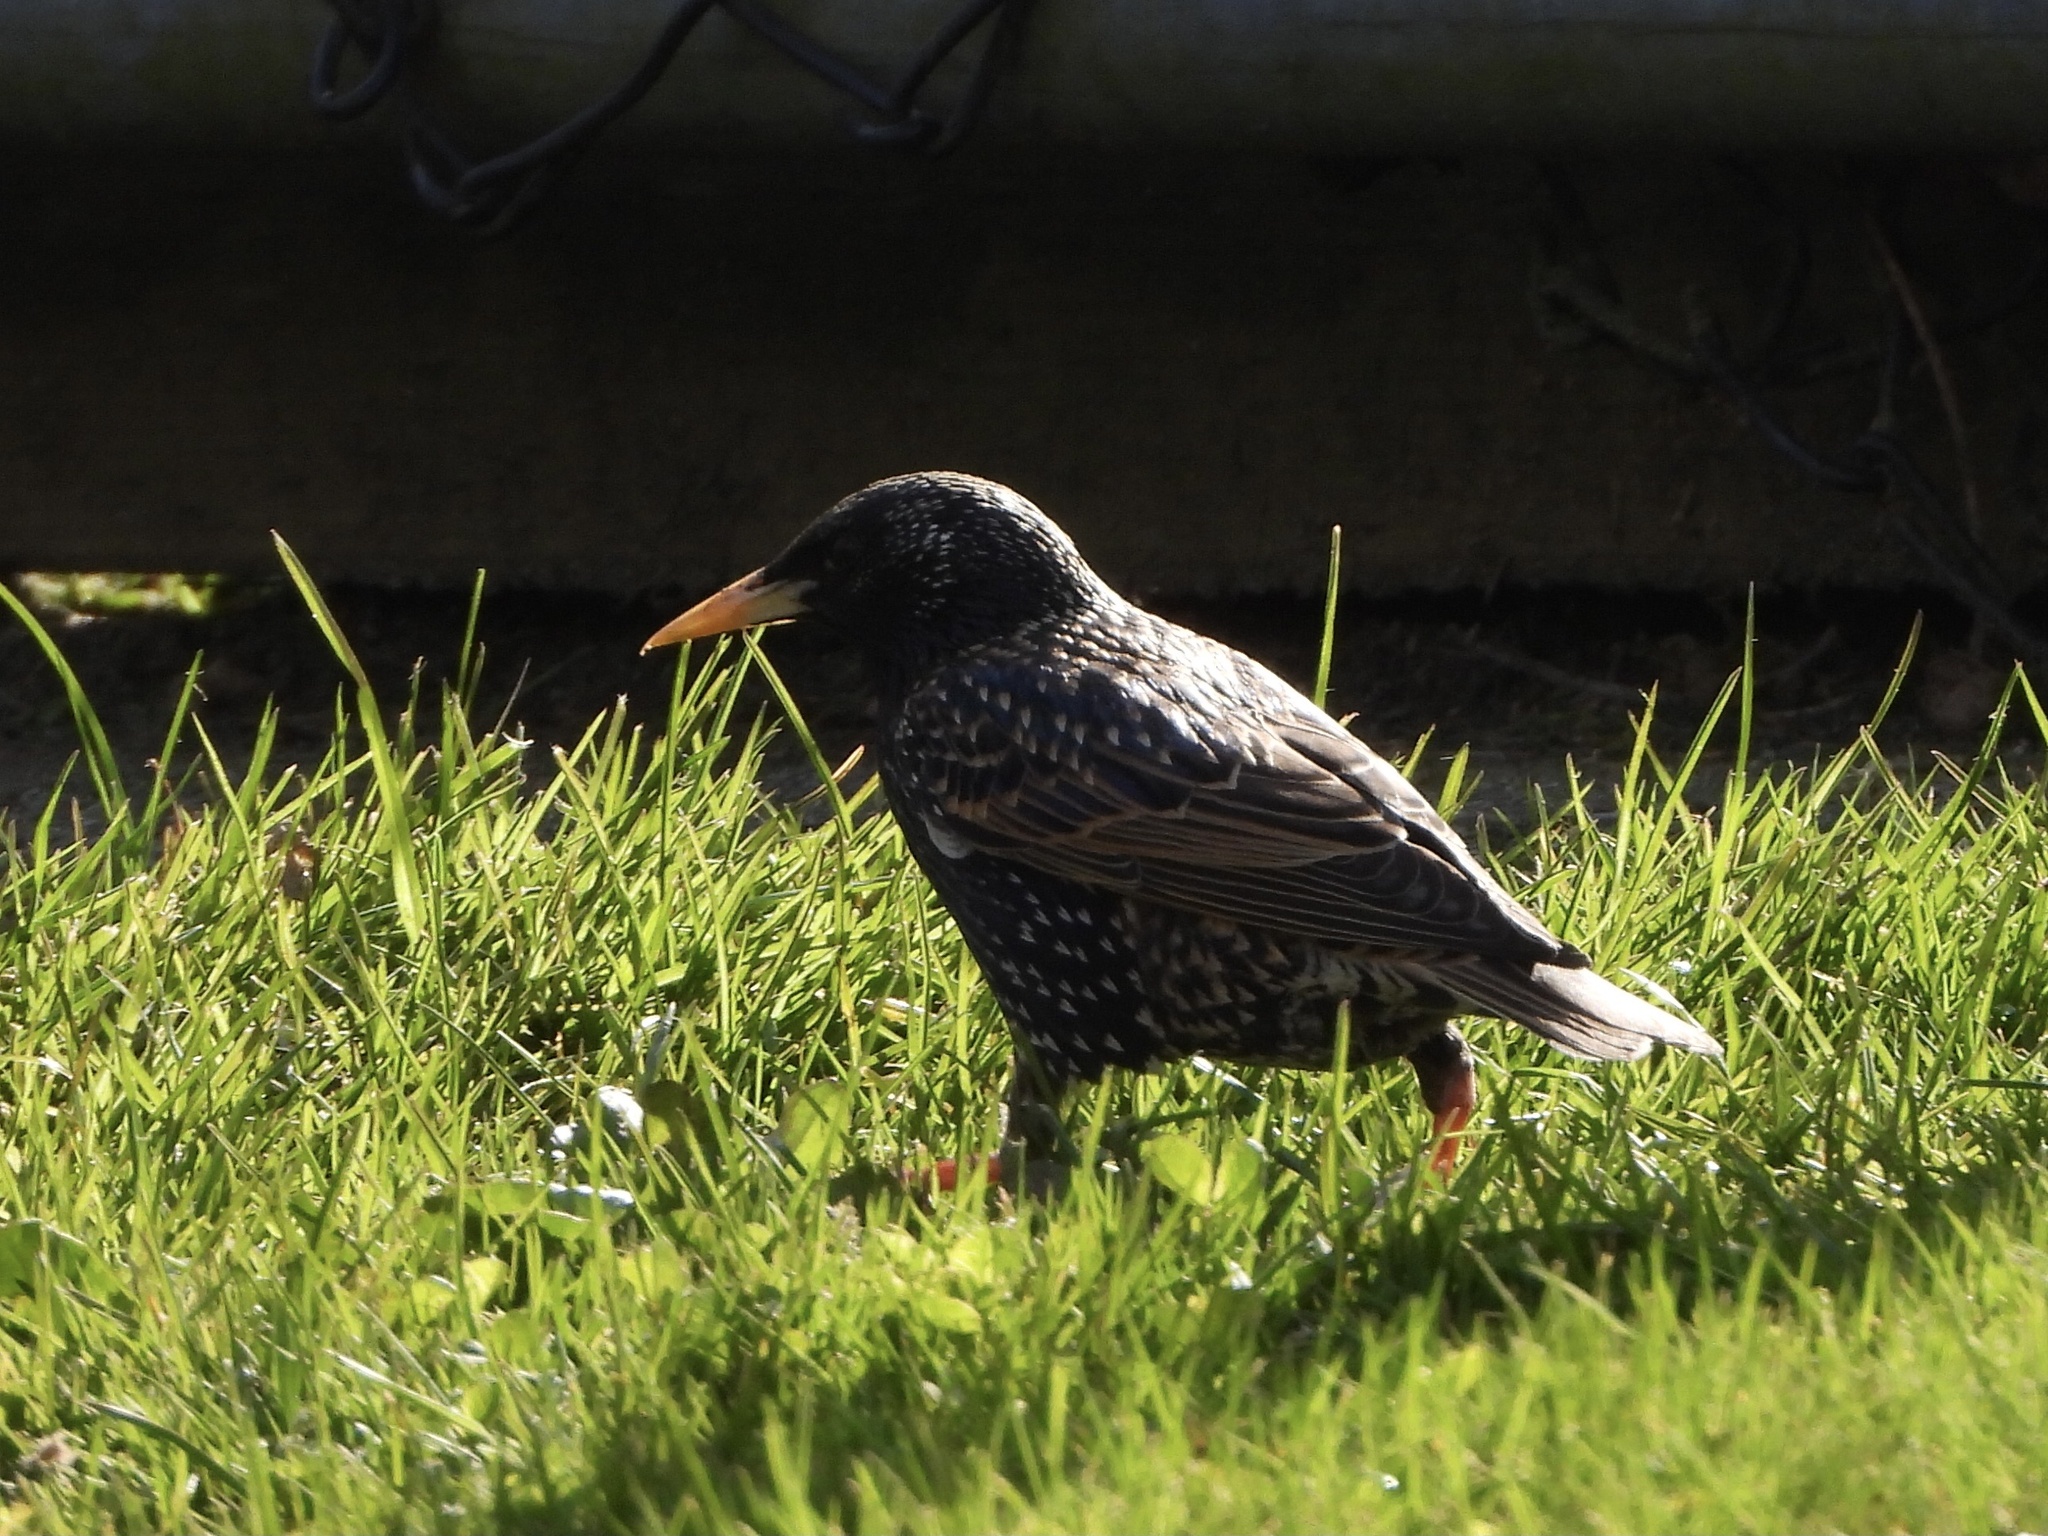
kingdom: Animalia
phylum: Chordata
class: Aves
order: Passeriformes
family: Sturnidae
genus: Sturnus
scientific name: Sturnus vulgaris
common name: Common starling
